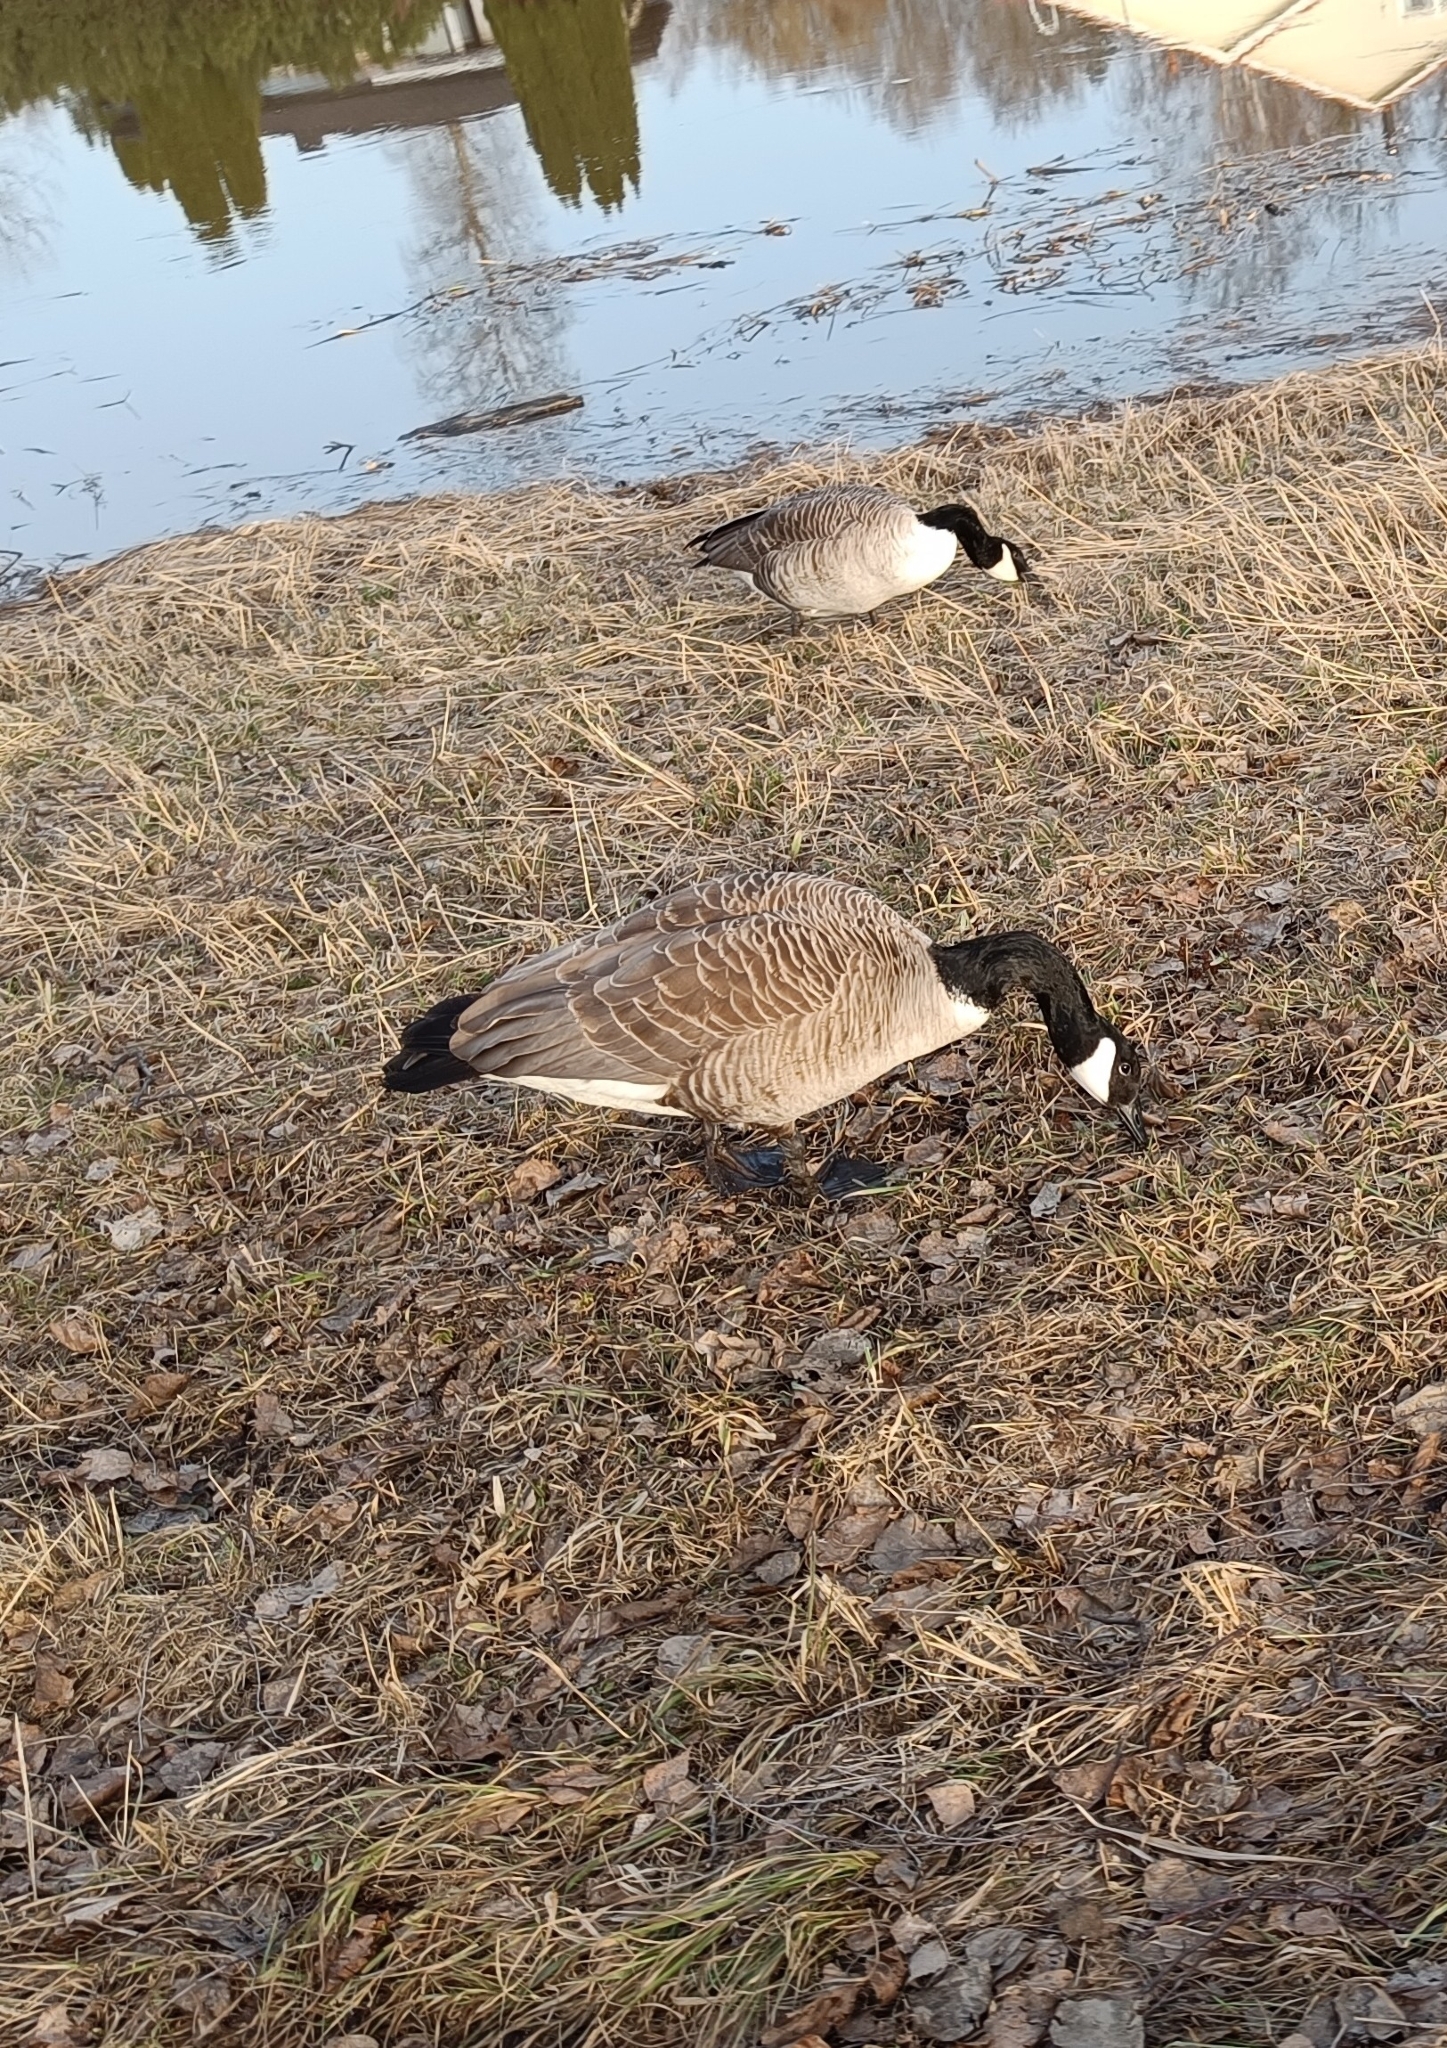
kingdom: Animalia
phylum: Chordata
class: Aves
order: Anseriformes
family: Anatidae
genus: Branta
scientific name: Branta canadensis
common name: Canada goose
